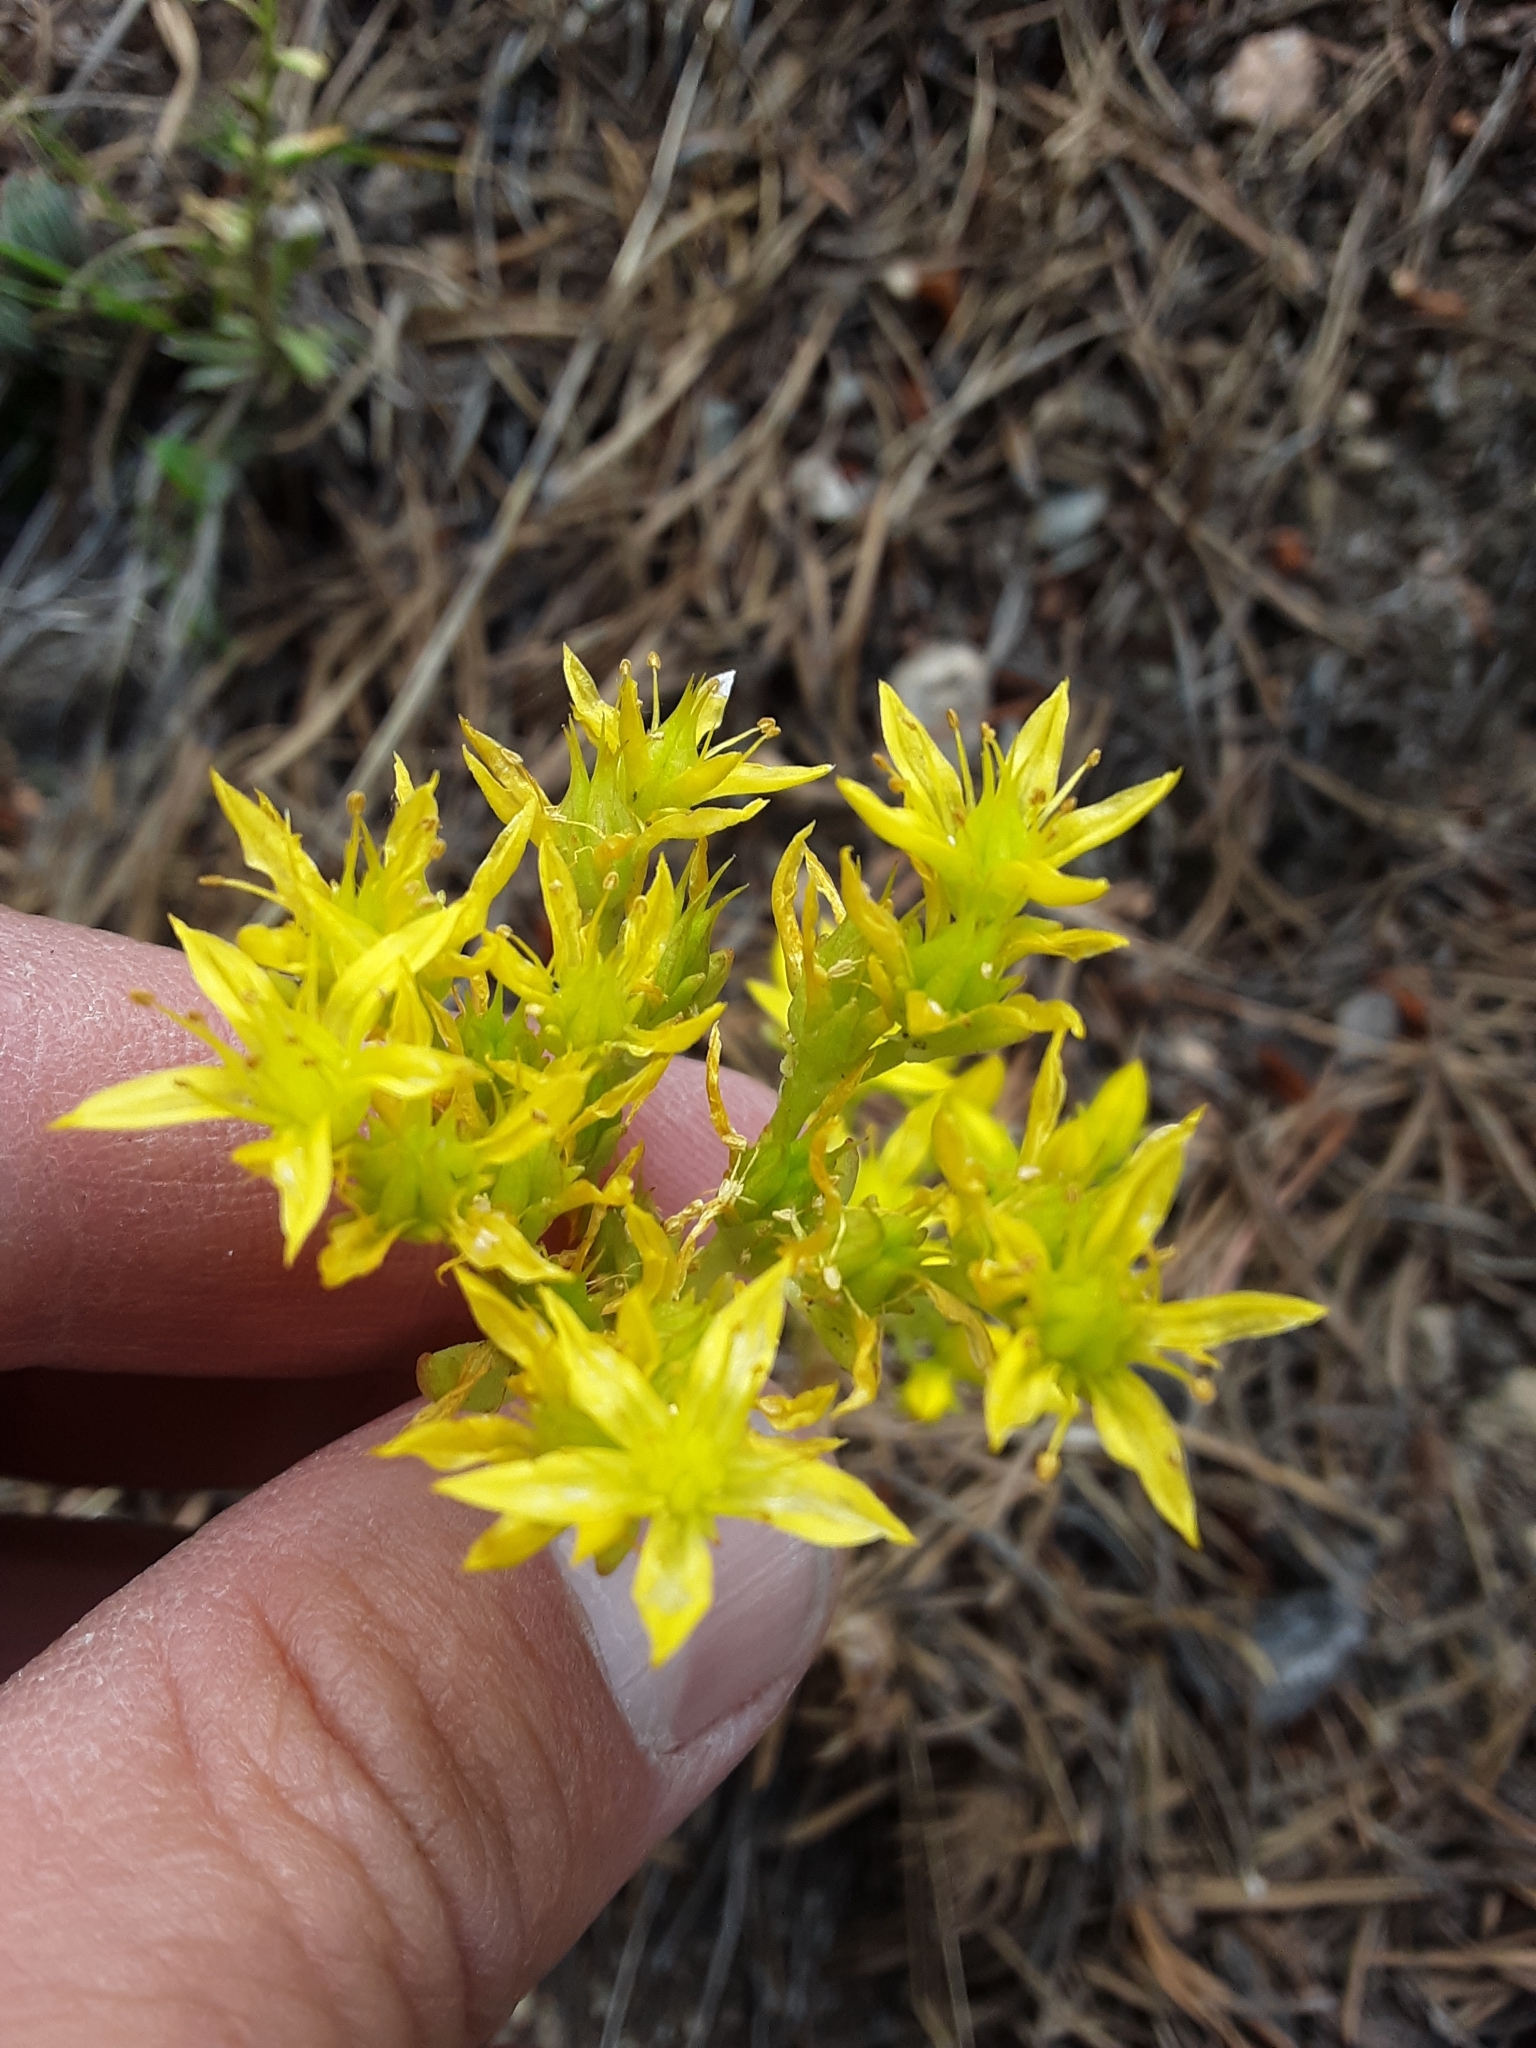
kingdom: Plantae
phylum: Tracheophyta
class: Magnoliopsida
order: Saxifragales
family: Crassulaceae
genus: Sedum
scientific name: Sedum lanceolatum
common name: Common stonecrop
